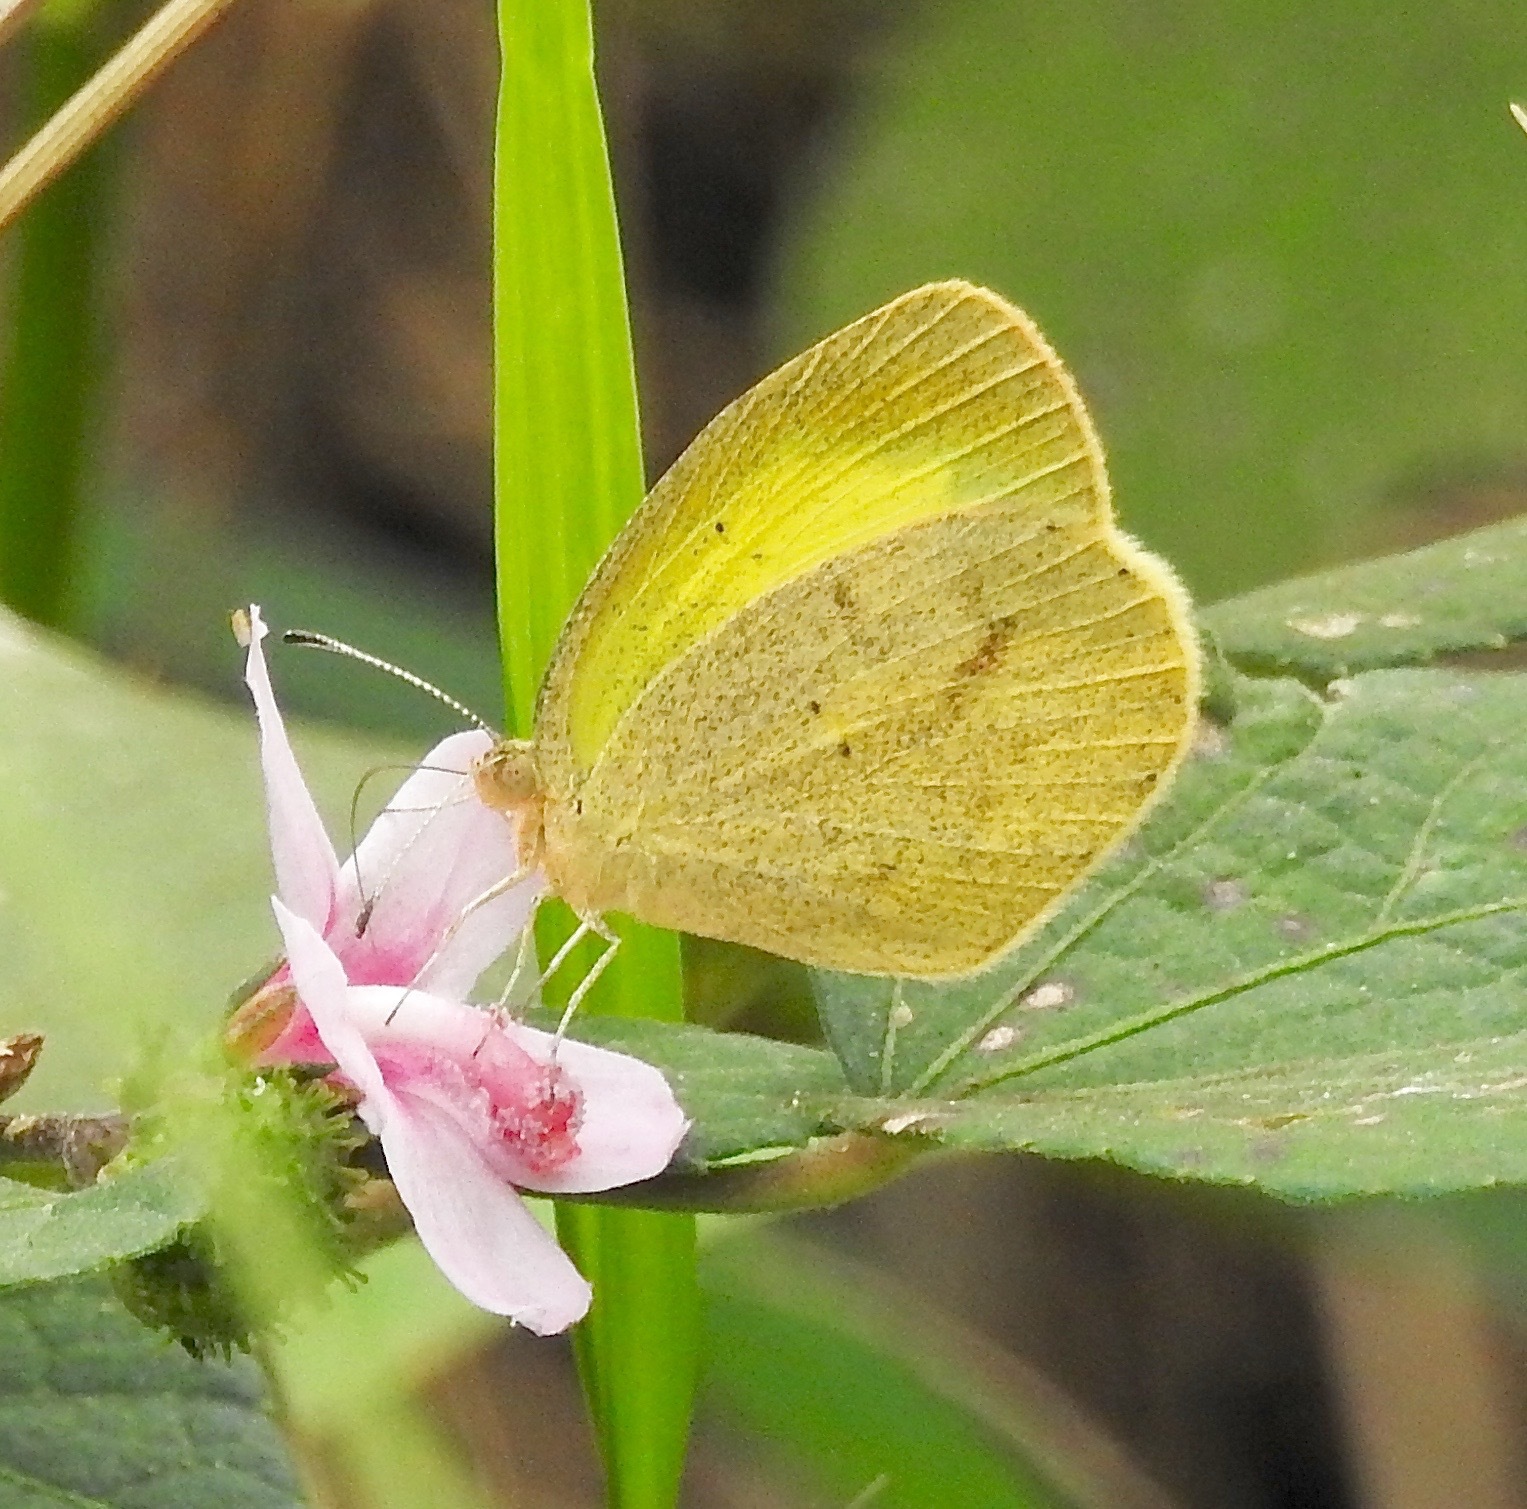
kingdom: Animalia
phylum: Arthropoda
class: Insecta
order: Lepidoptera
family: Pieridae
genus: Eurema
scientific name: Eurema daira
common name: Barred sulphur
